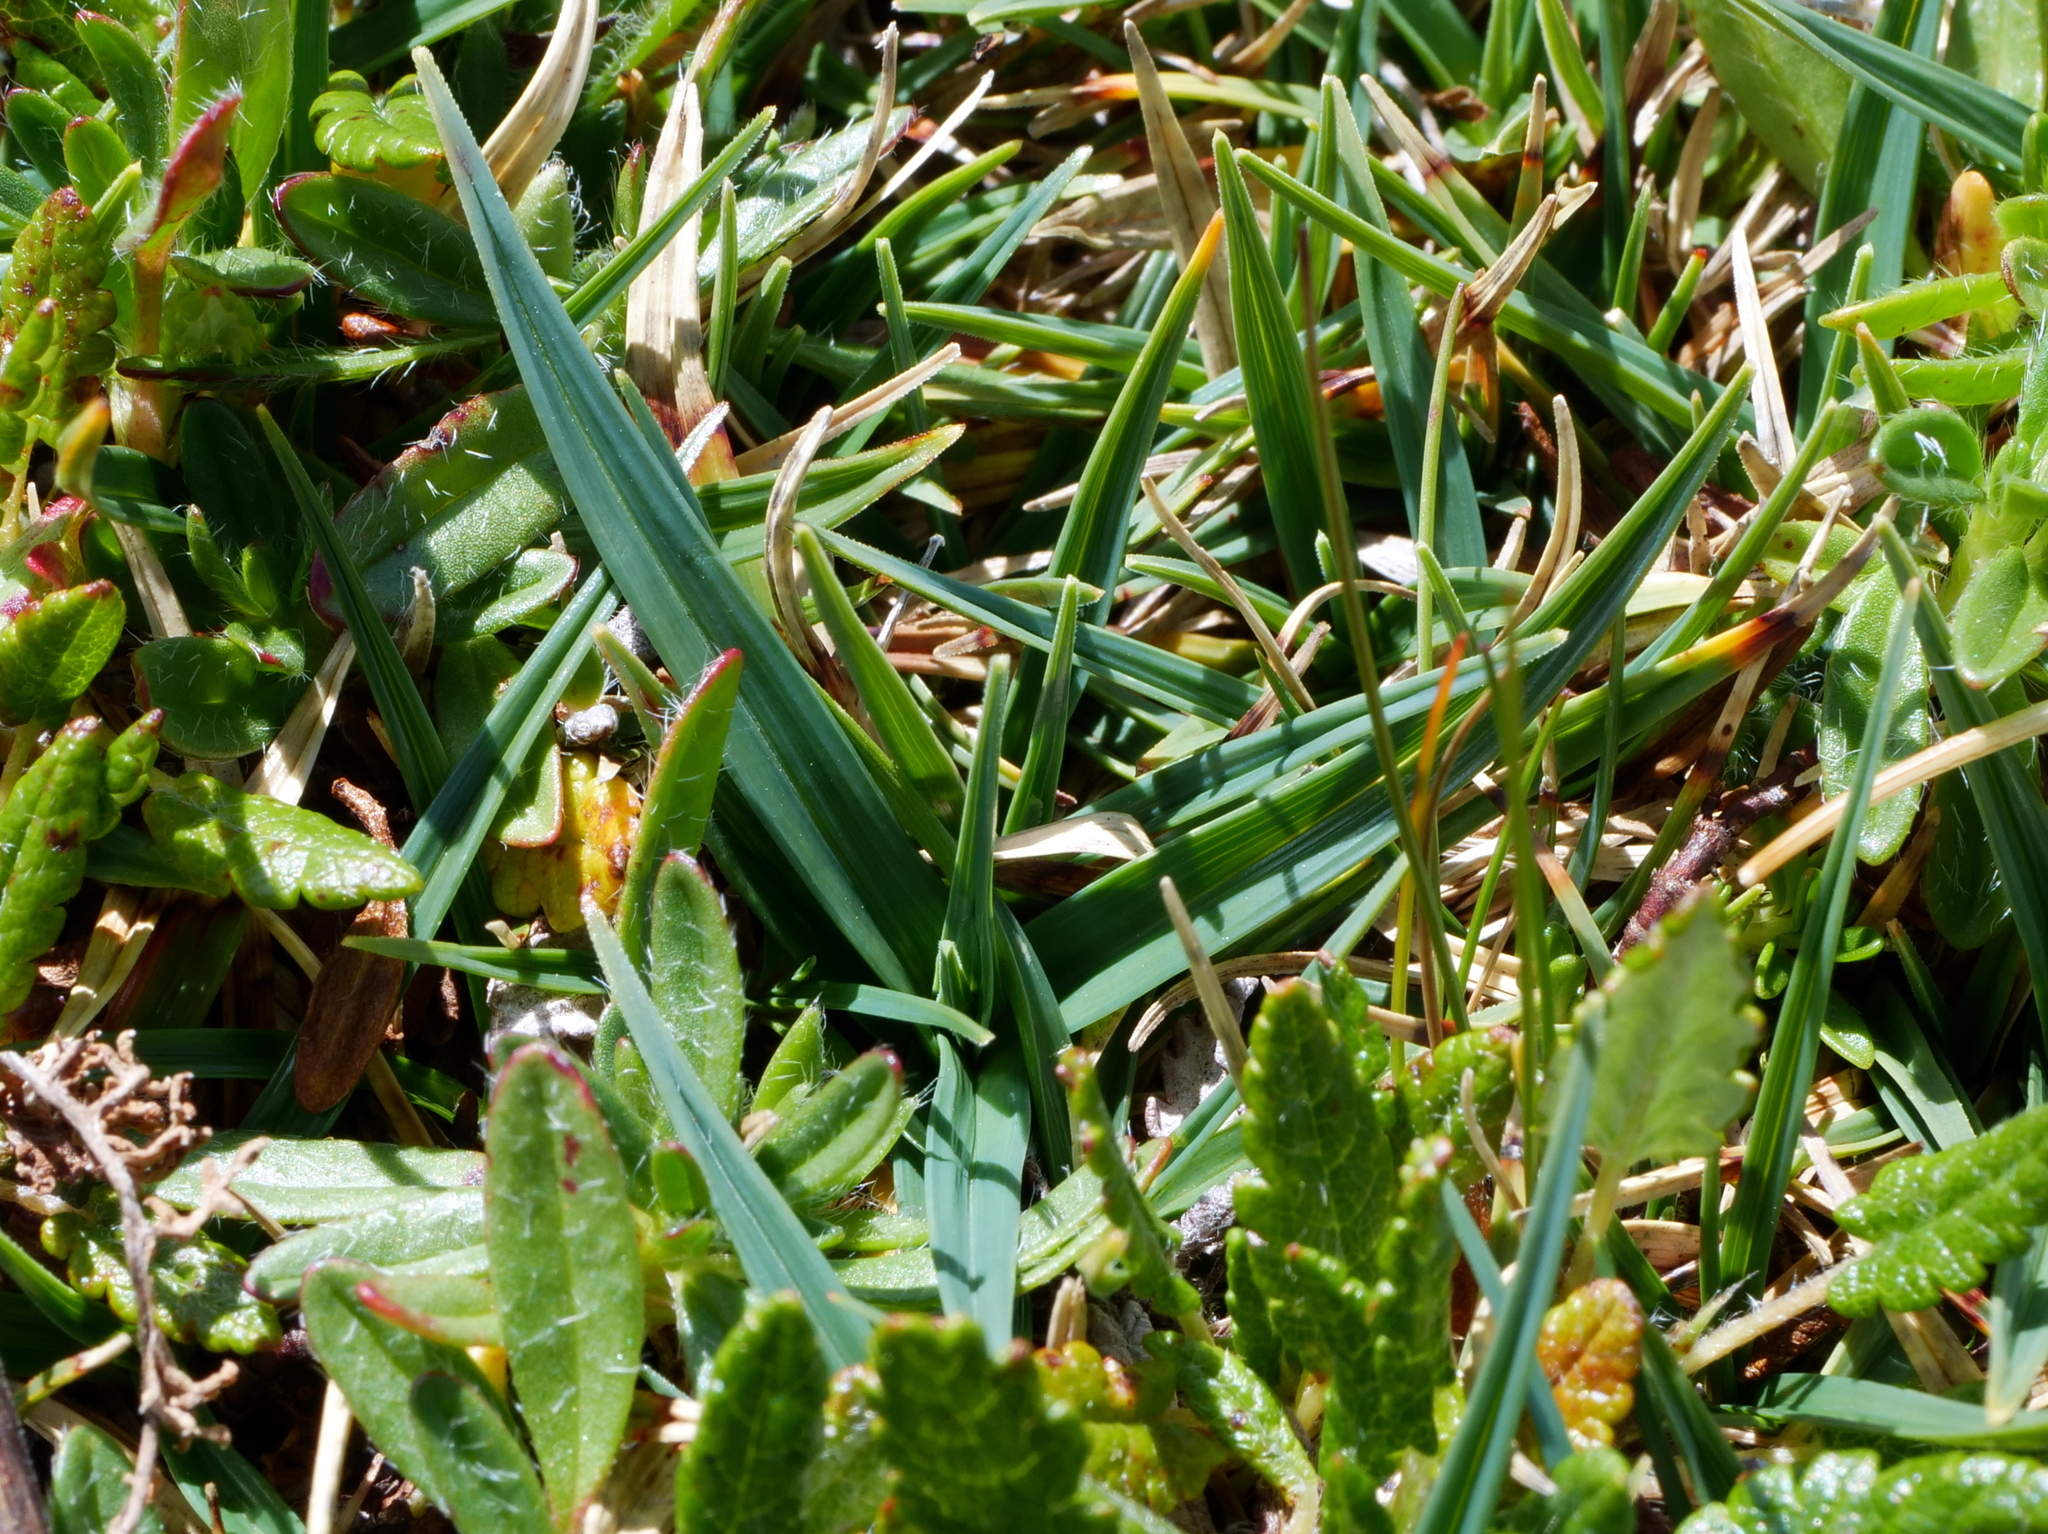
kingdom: Plantae
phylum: Tracheophyta
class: Liliopsida
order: Poales
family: Cyperaceae
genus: Carex
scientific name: Carex firma
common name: Dwarf pillow sedge
